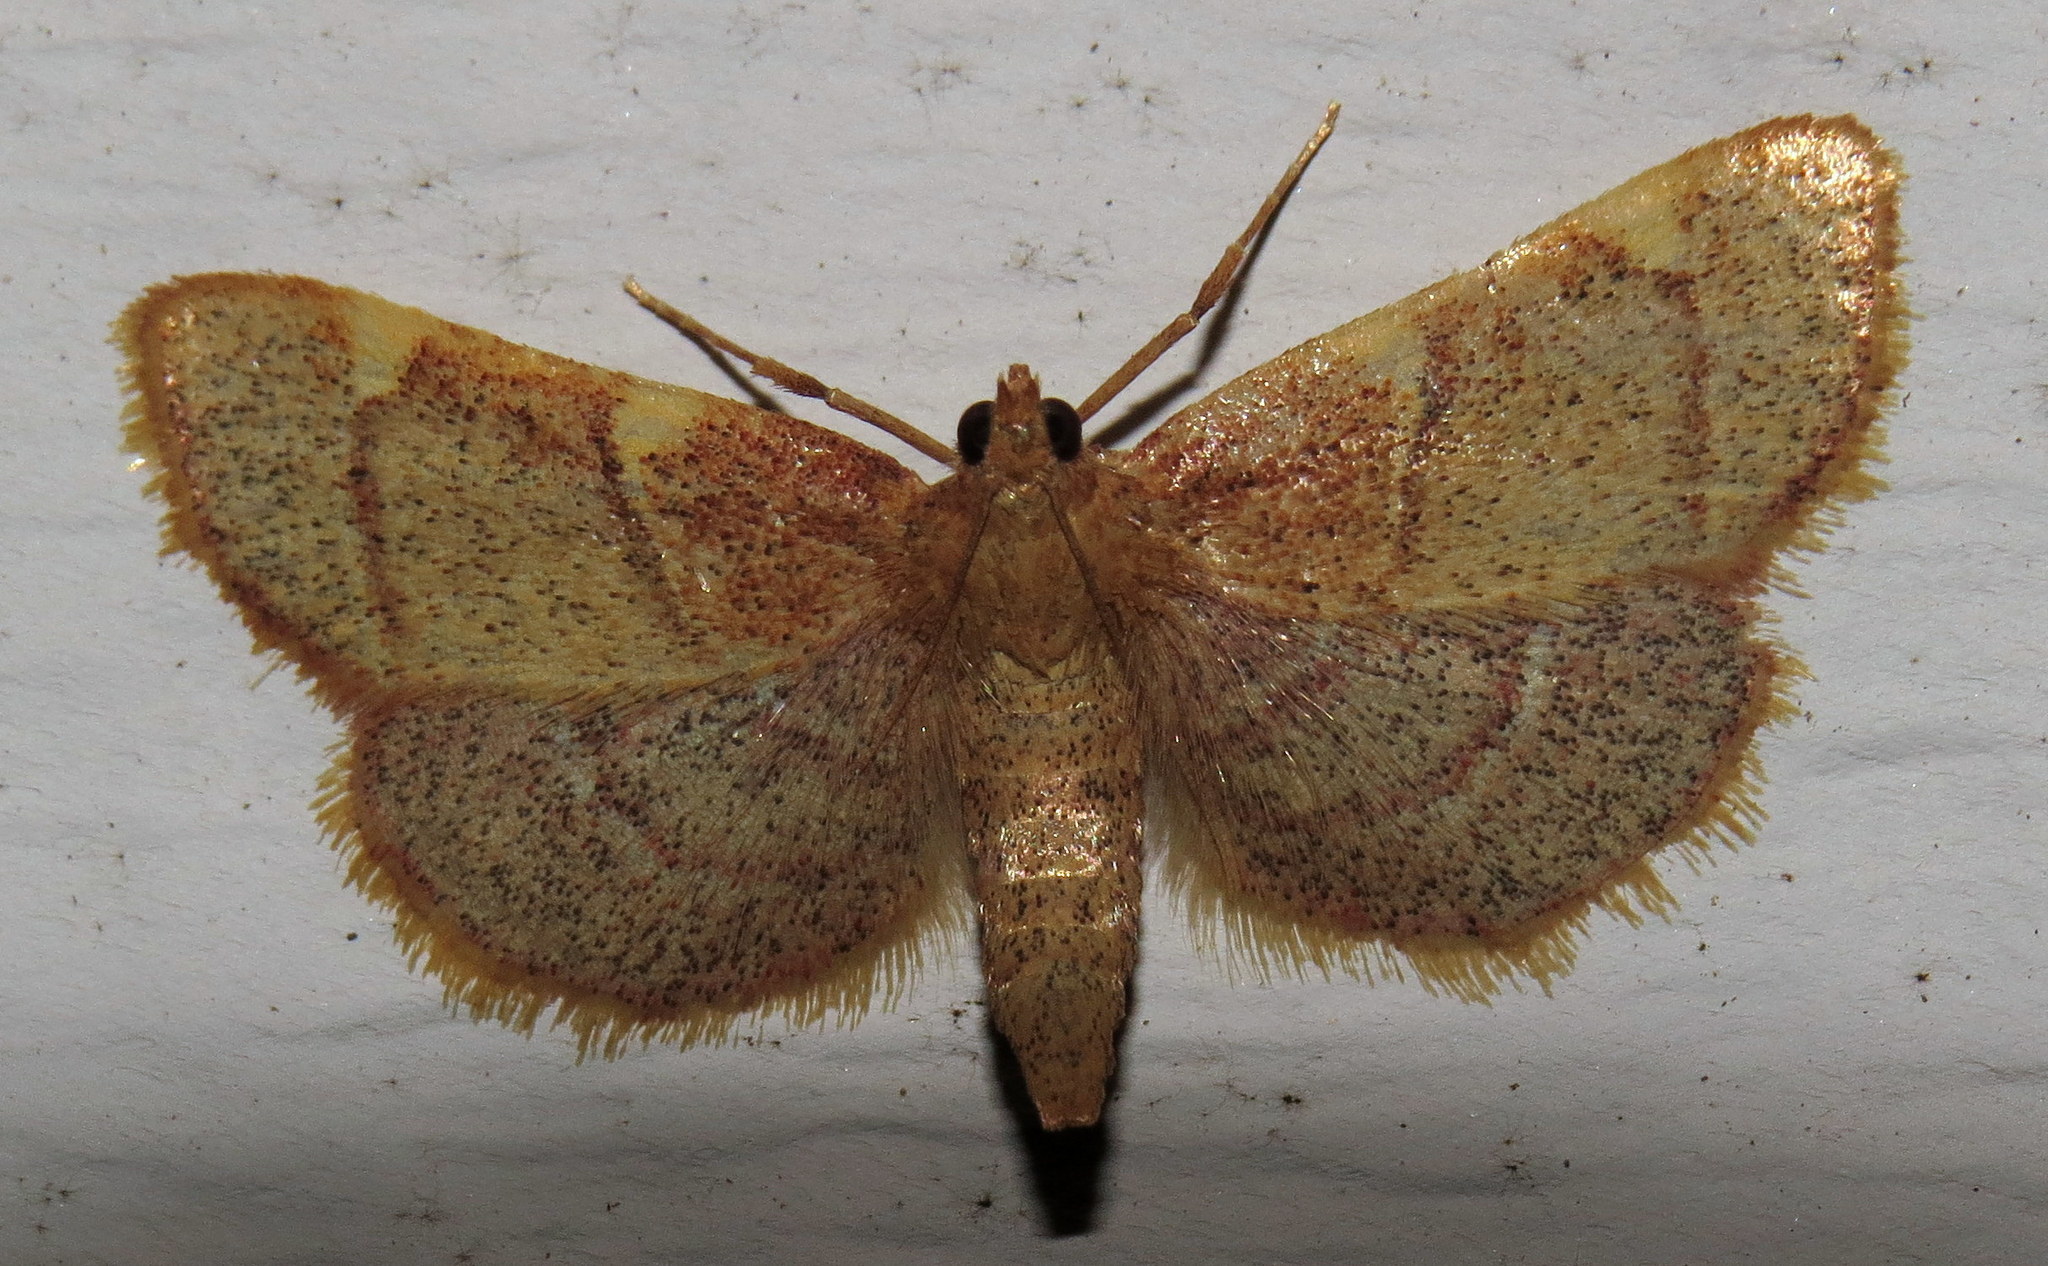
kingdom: Animalia
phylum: Arthropoda
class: Insecta
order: Lepidoptera
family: Pyralidae
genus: Hypsopygia
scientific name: Hypsopygia olinalis
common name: Yellow-fringed dolichomia moth
